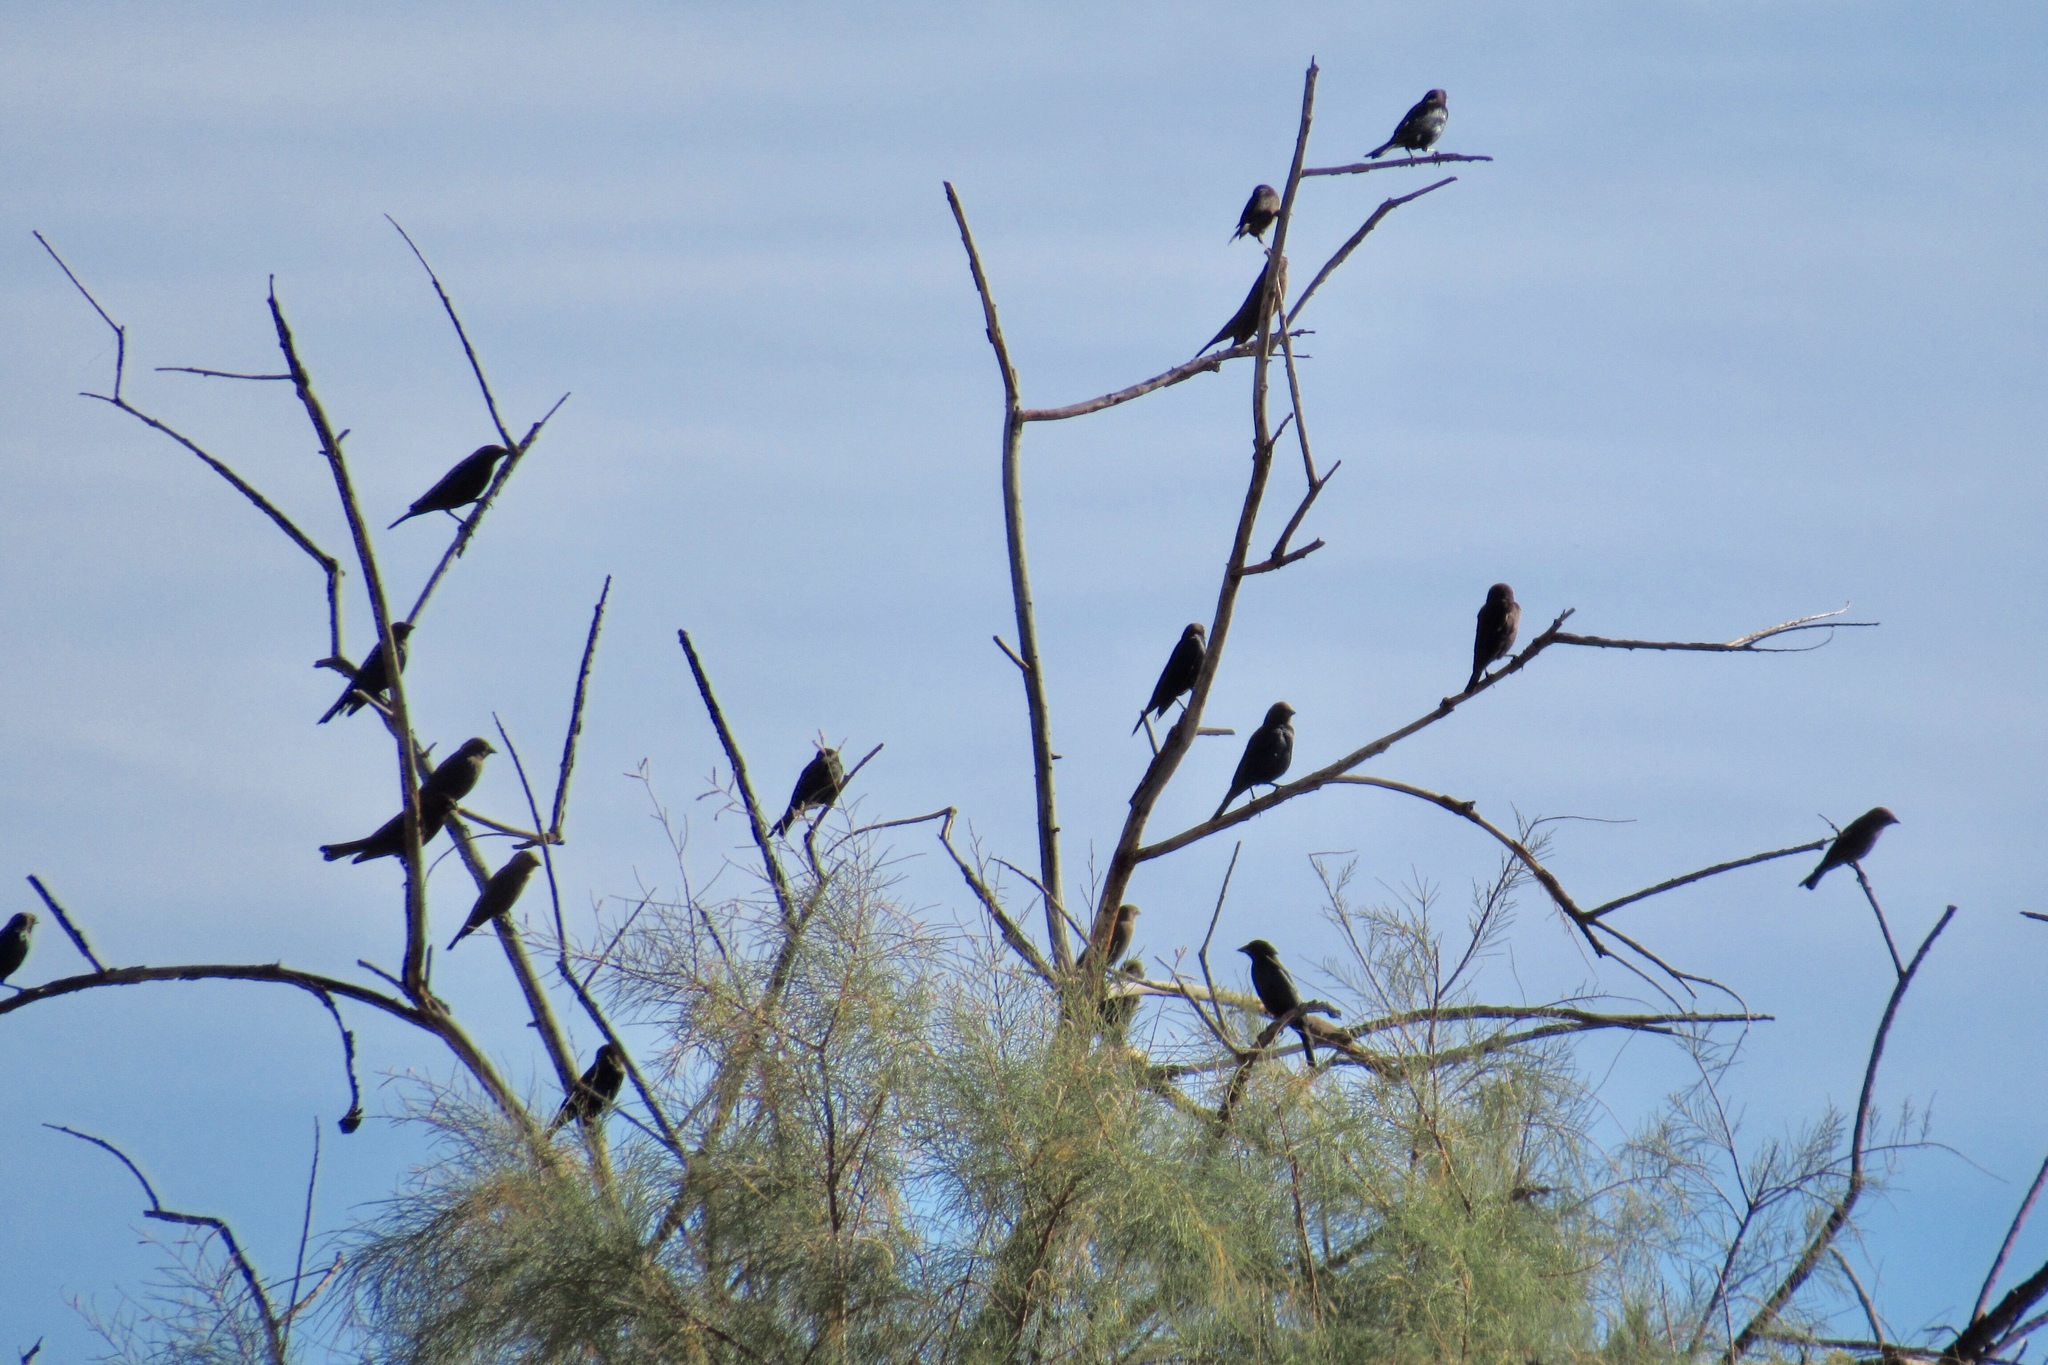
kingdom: Animalia
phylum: Chordata
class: Aves
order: Passeriformes
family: Icteridae
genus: Molothrus
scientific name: Molothrus ater
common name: Brown-headed cowbird
